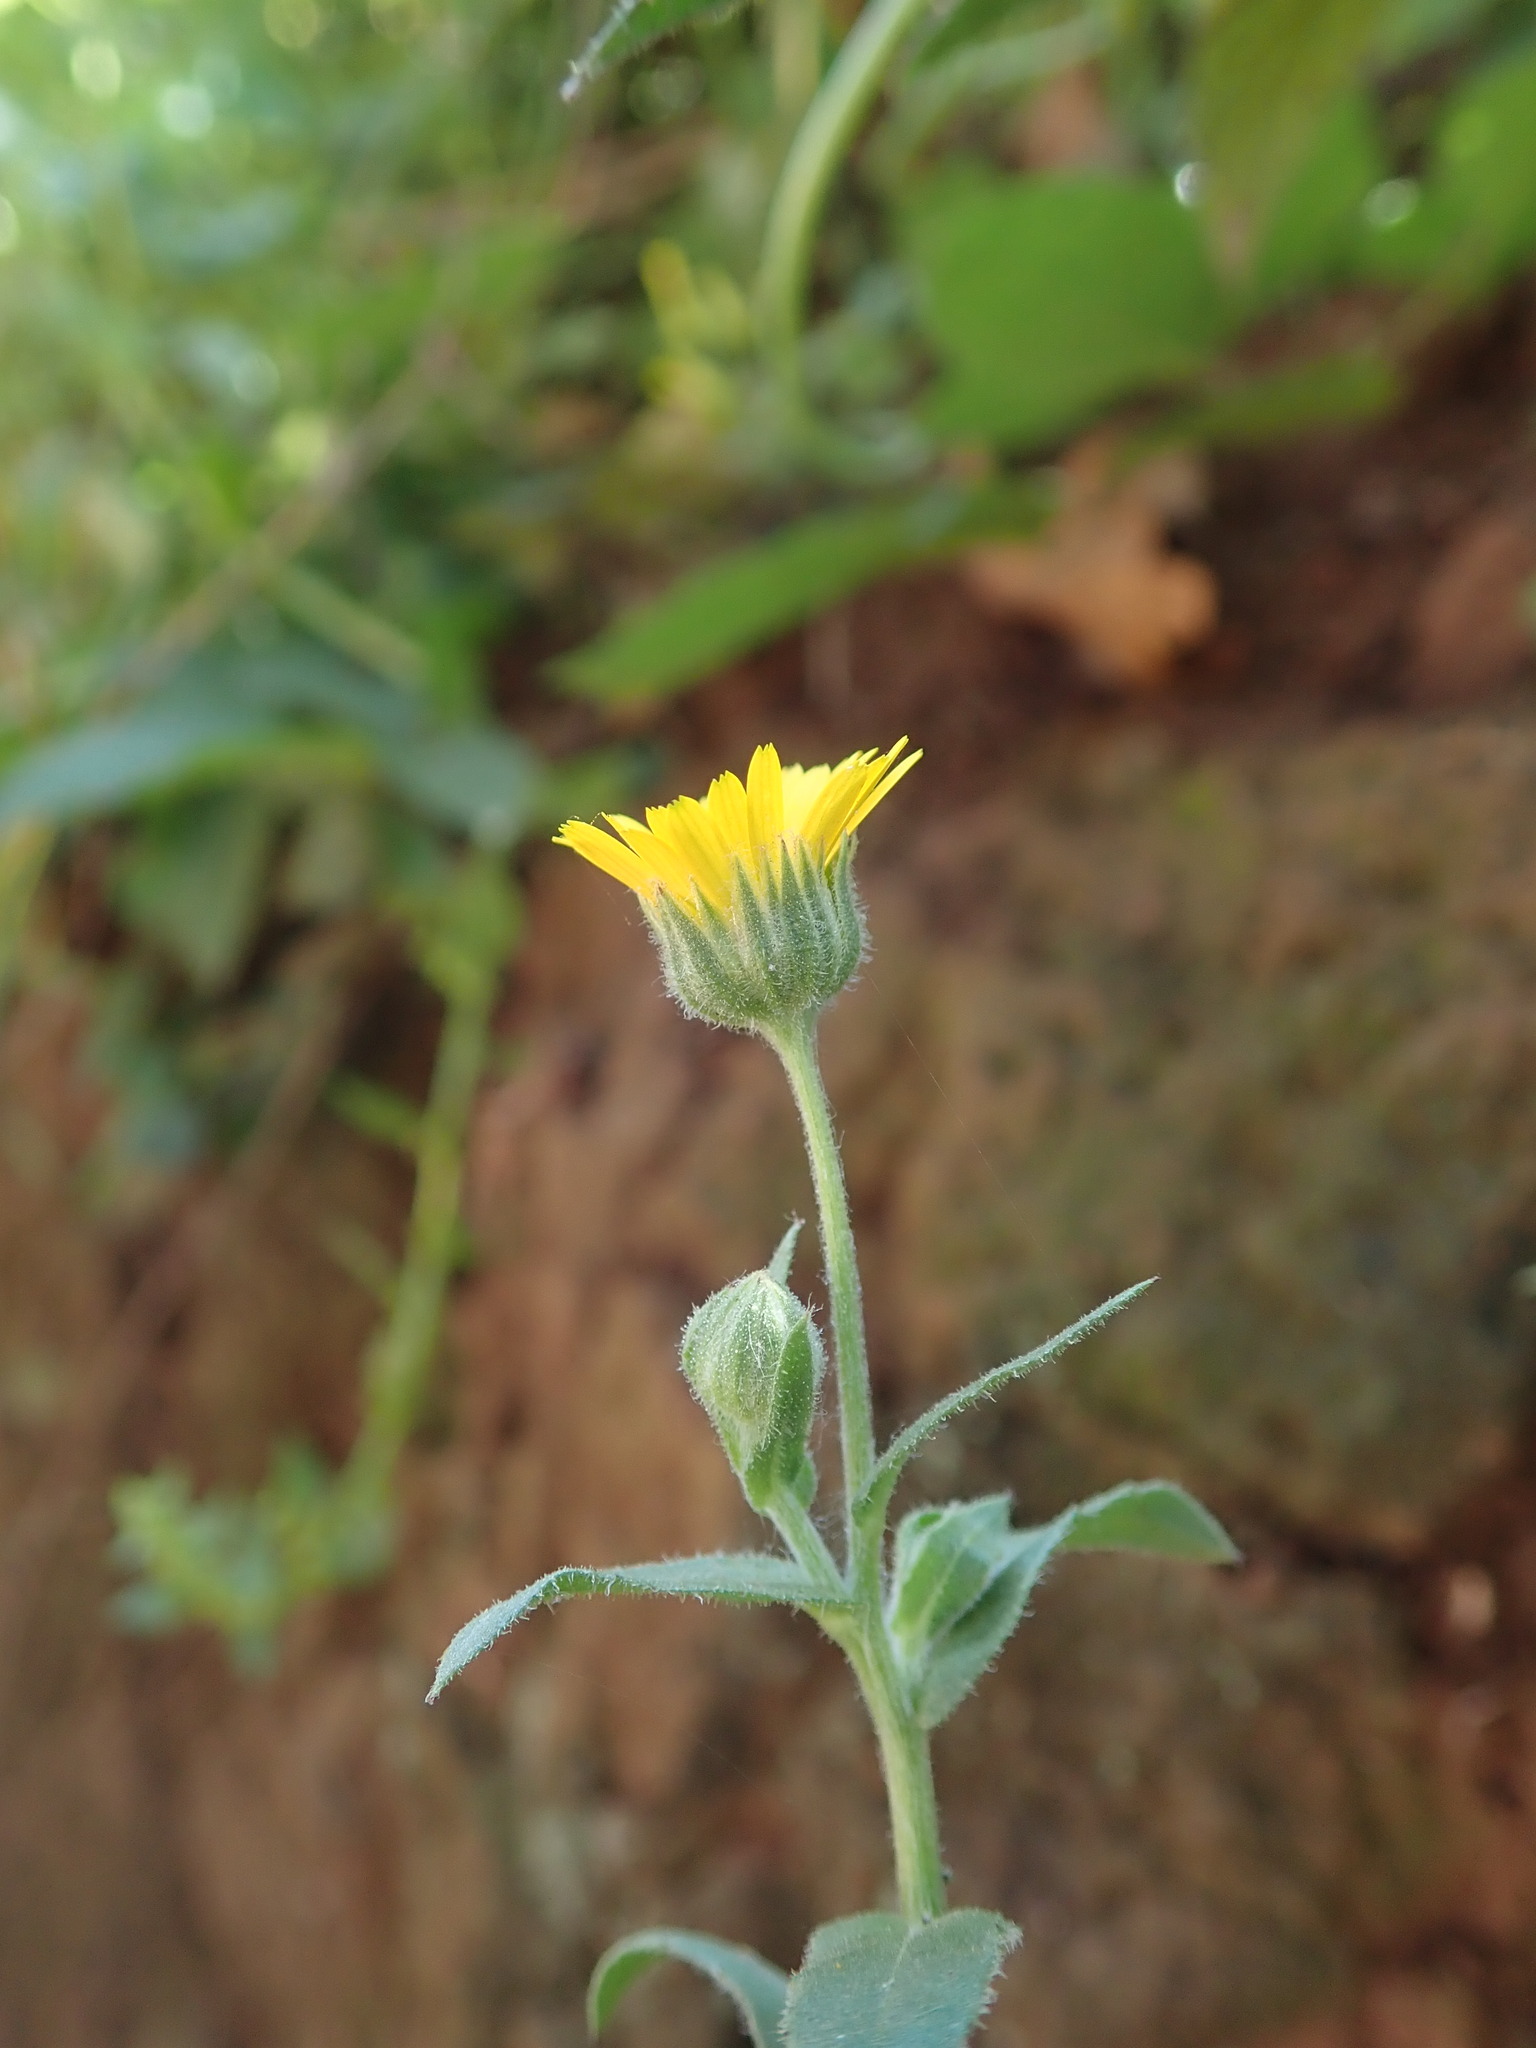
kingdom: Plantae
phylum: Tracheophyta
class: Magnoliopsida
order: Asterales
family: Asteraceae
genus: Calendula
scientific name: Calendula arvensis
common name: Field marigold
